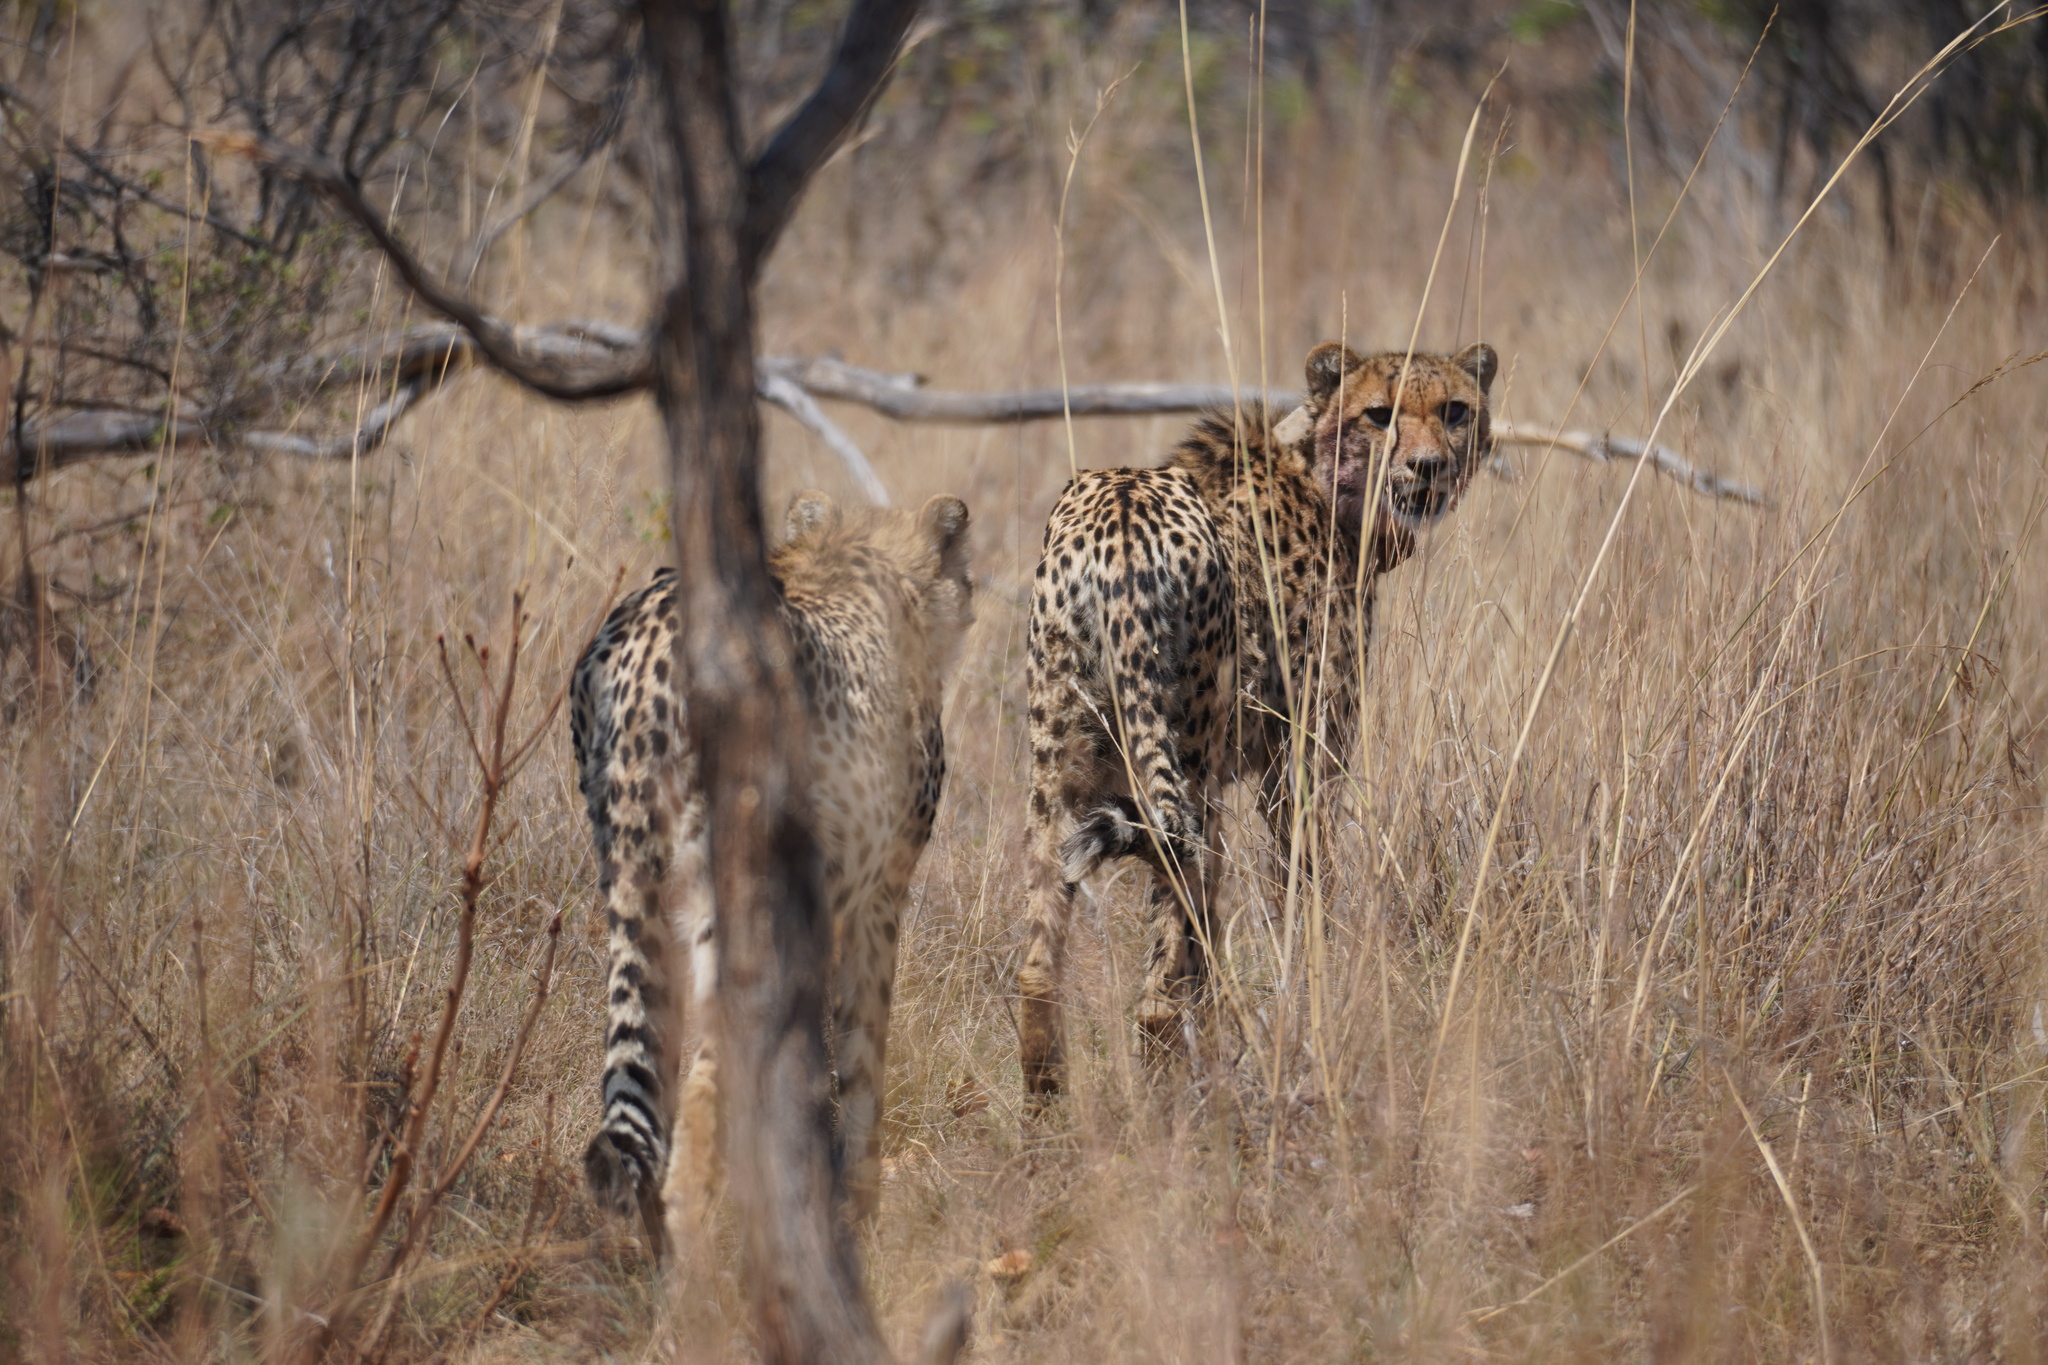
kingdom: Animalia
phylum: Chordata
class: Mammalia
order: Carnivora
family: Felidae
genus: Acinonyx
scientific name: Acinonyx jubatus
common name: Cheetah
